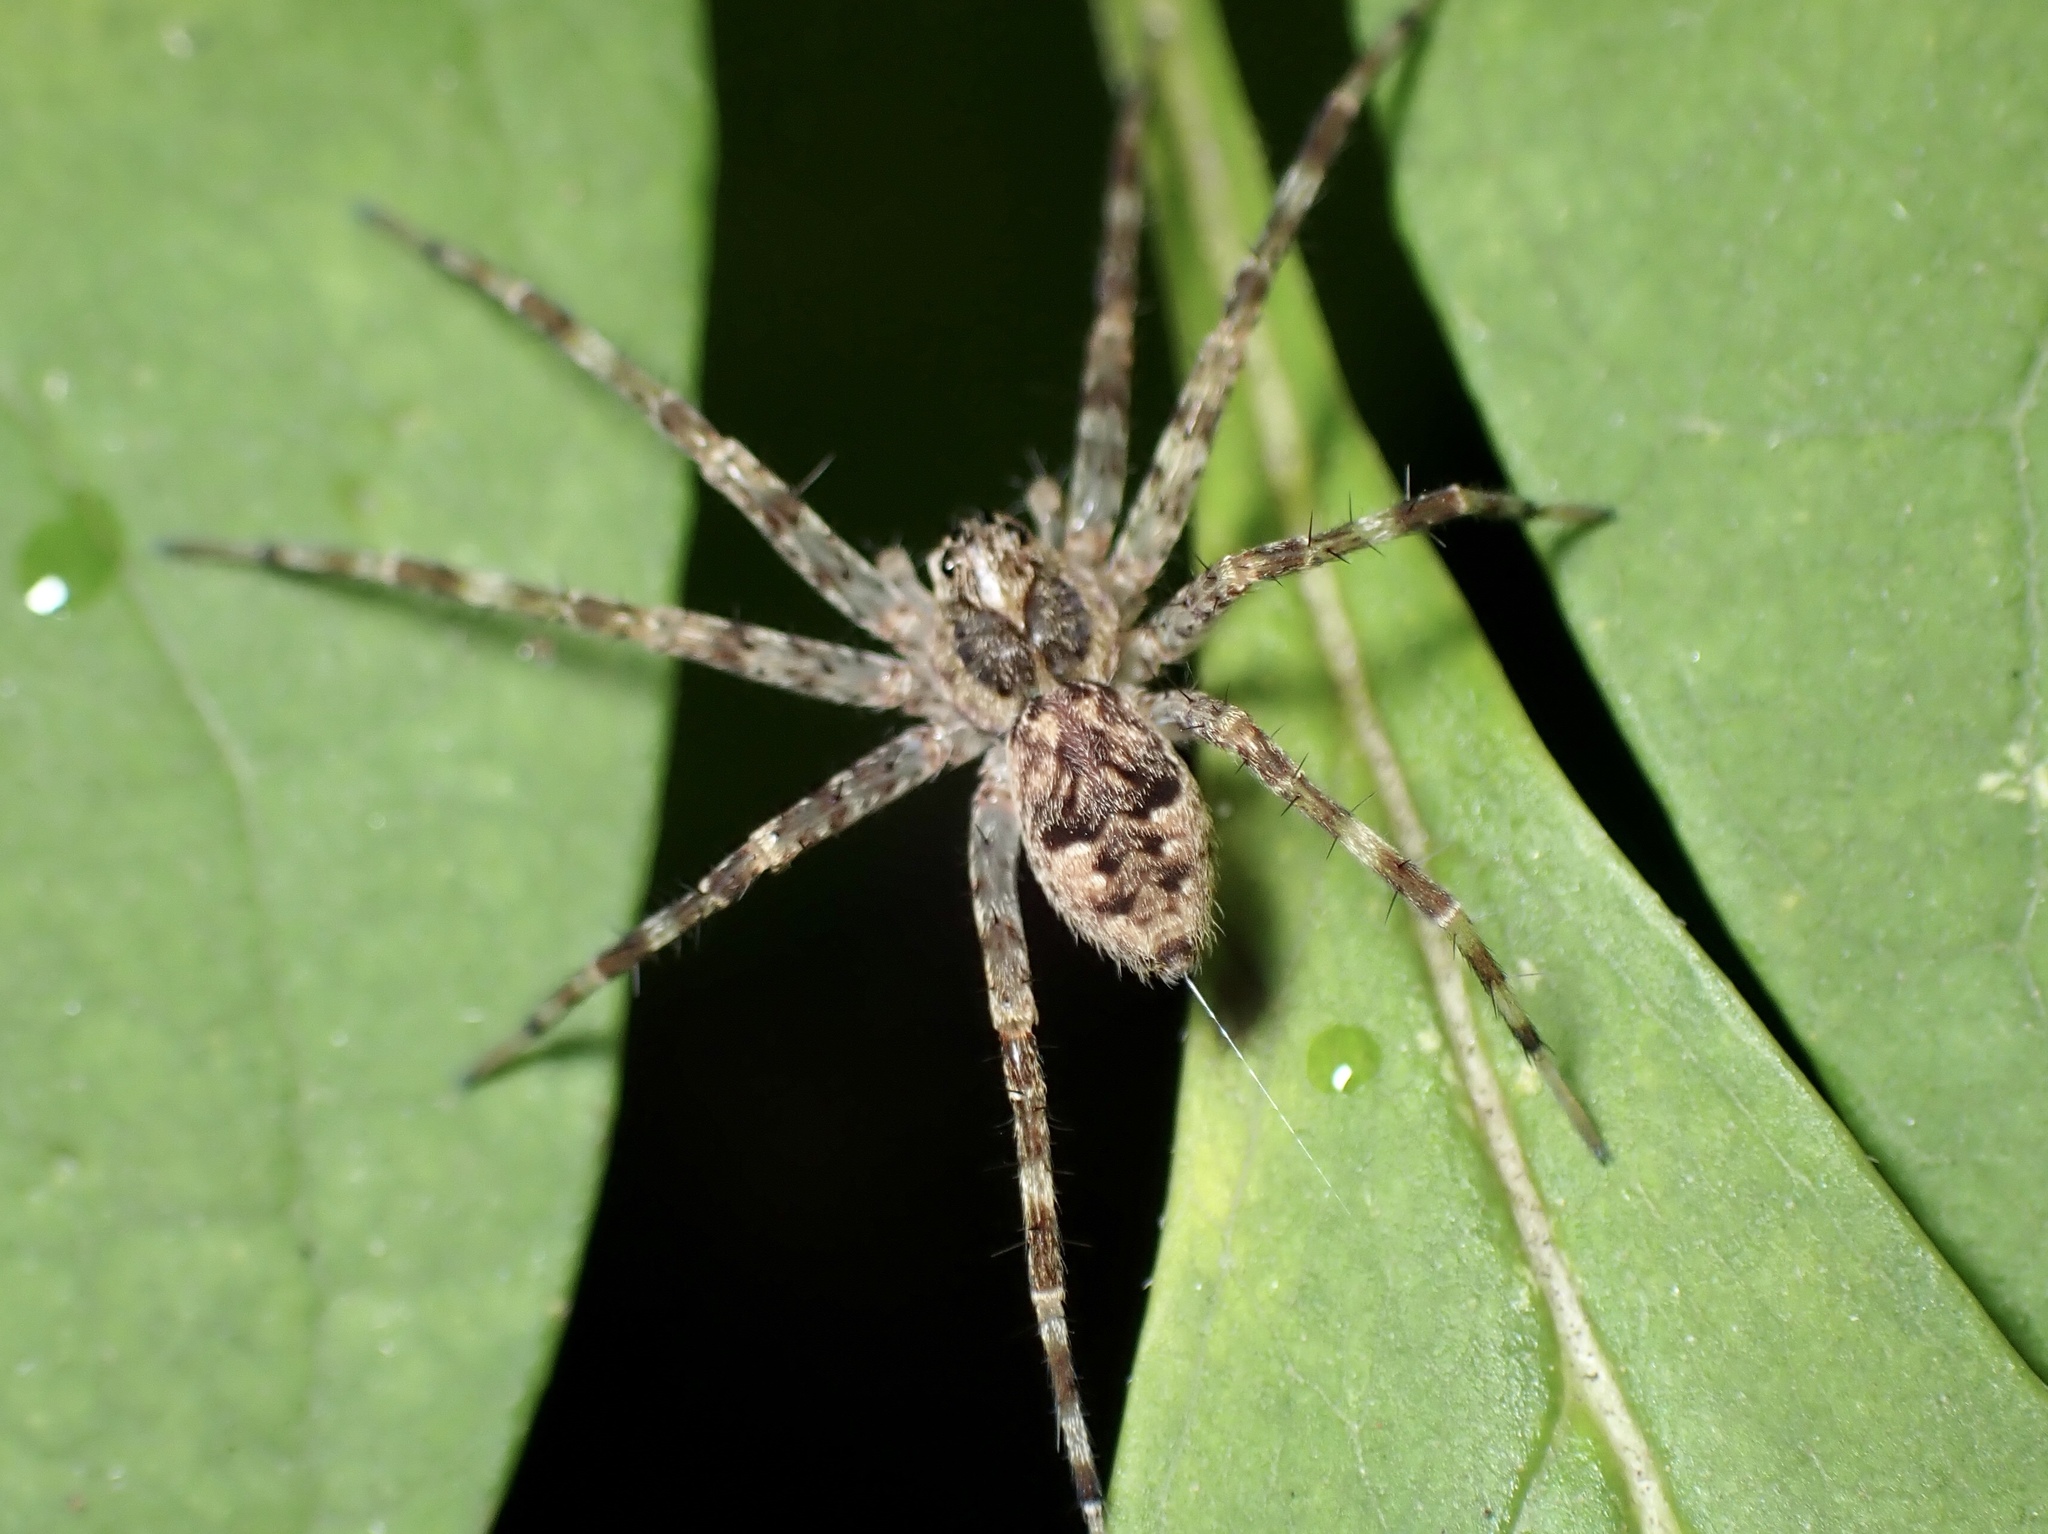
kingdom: Animalia
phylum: Arthropoda
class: Arachnida
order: Araneae
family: Pisauridae
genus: Dolomedes
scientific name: Dolomedes tenebrosus
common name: Dark fishing spider
